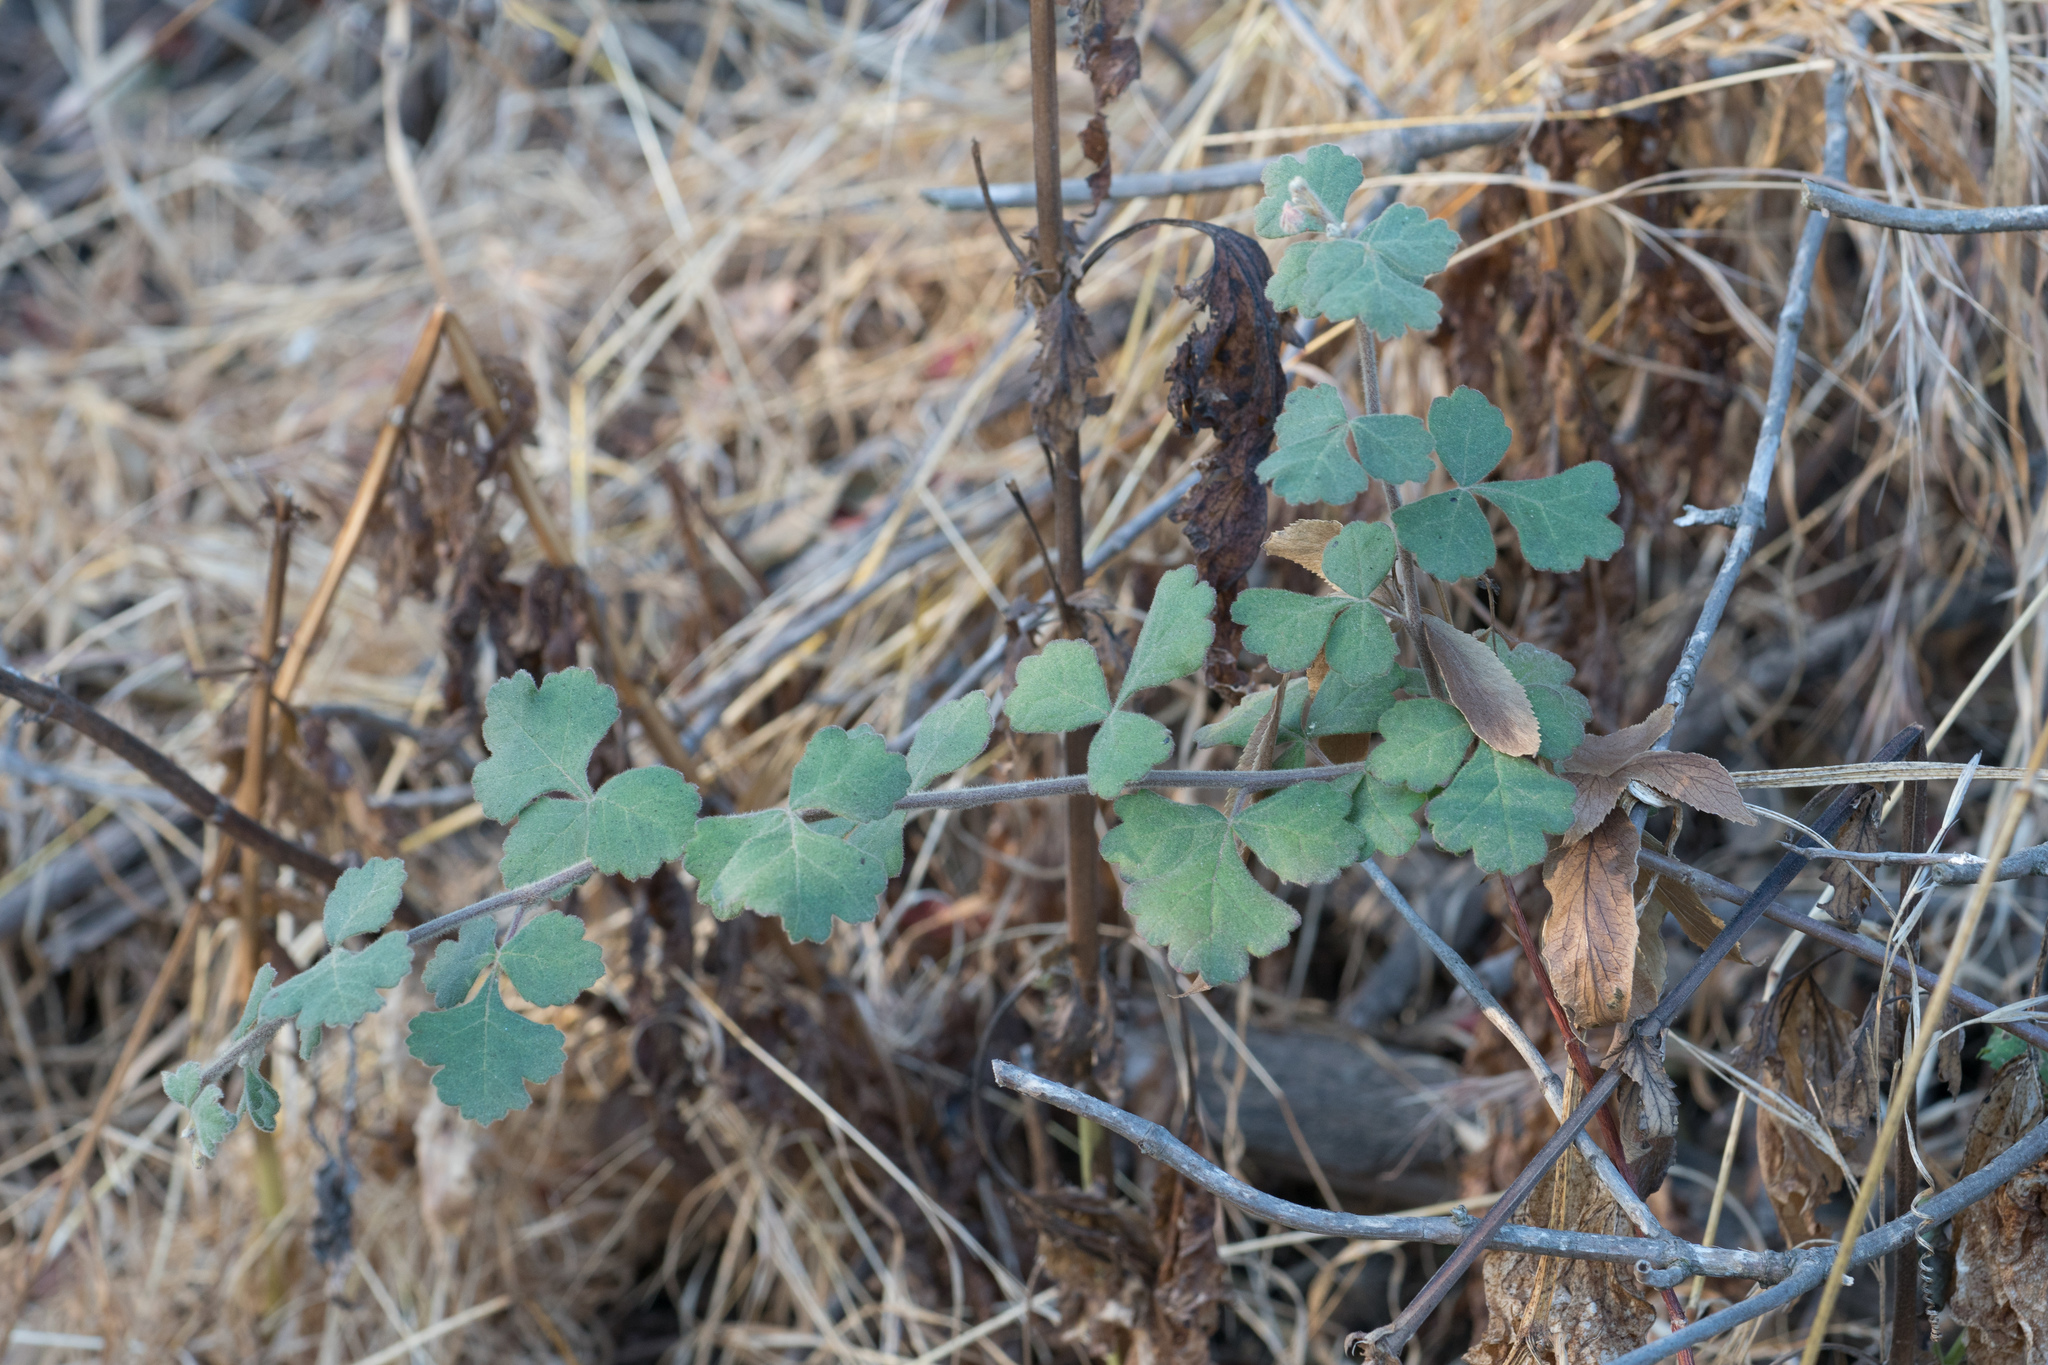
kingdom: Plantae
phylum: Tracheophyta
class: Magnoliopsida
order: Sapindales
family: Anacardiaceae
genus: Rhus
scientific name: Rhus aromatica
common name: Aromatic sumac
